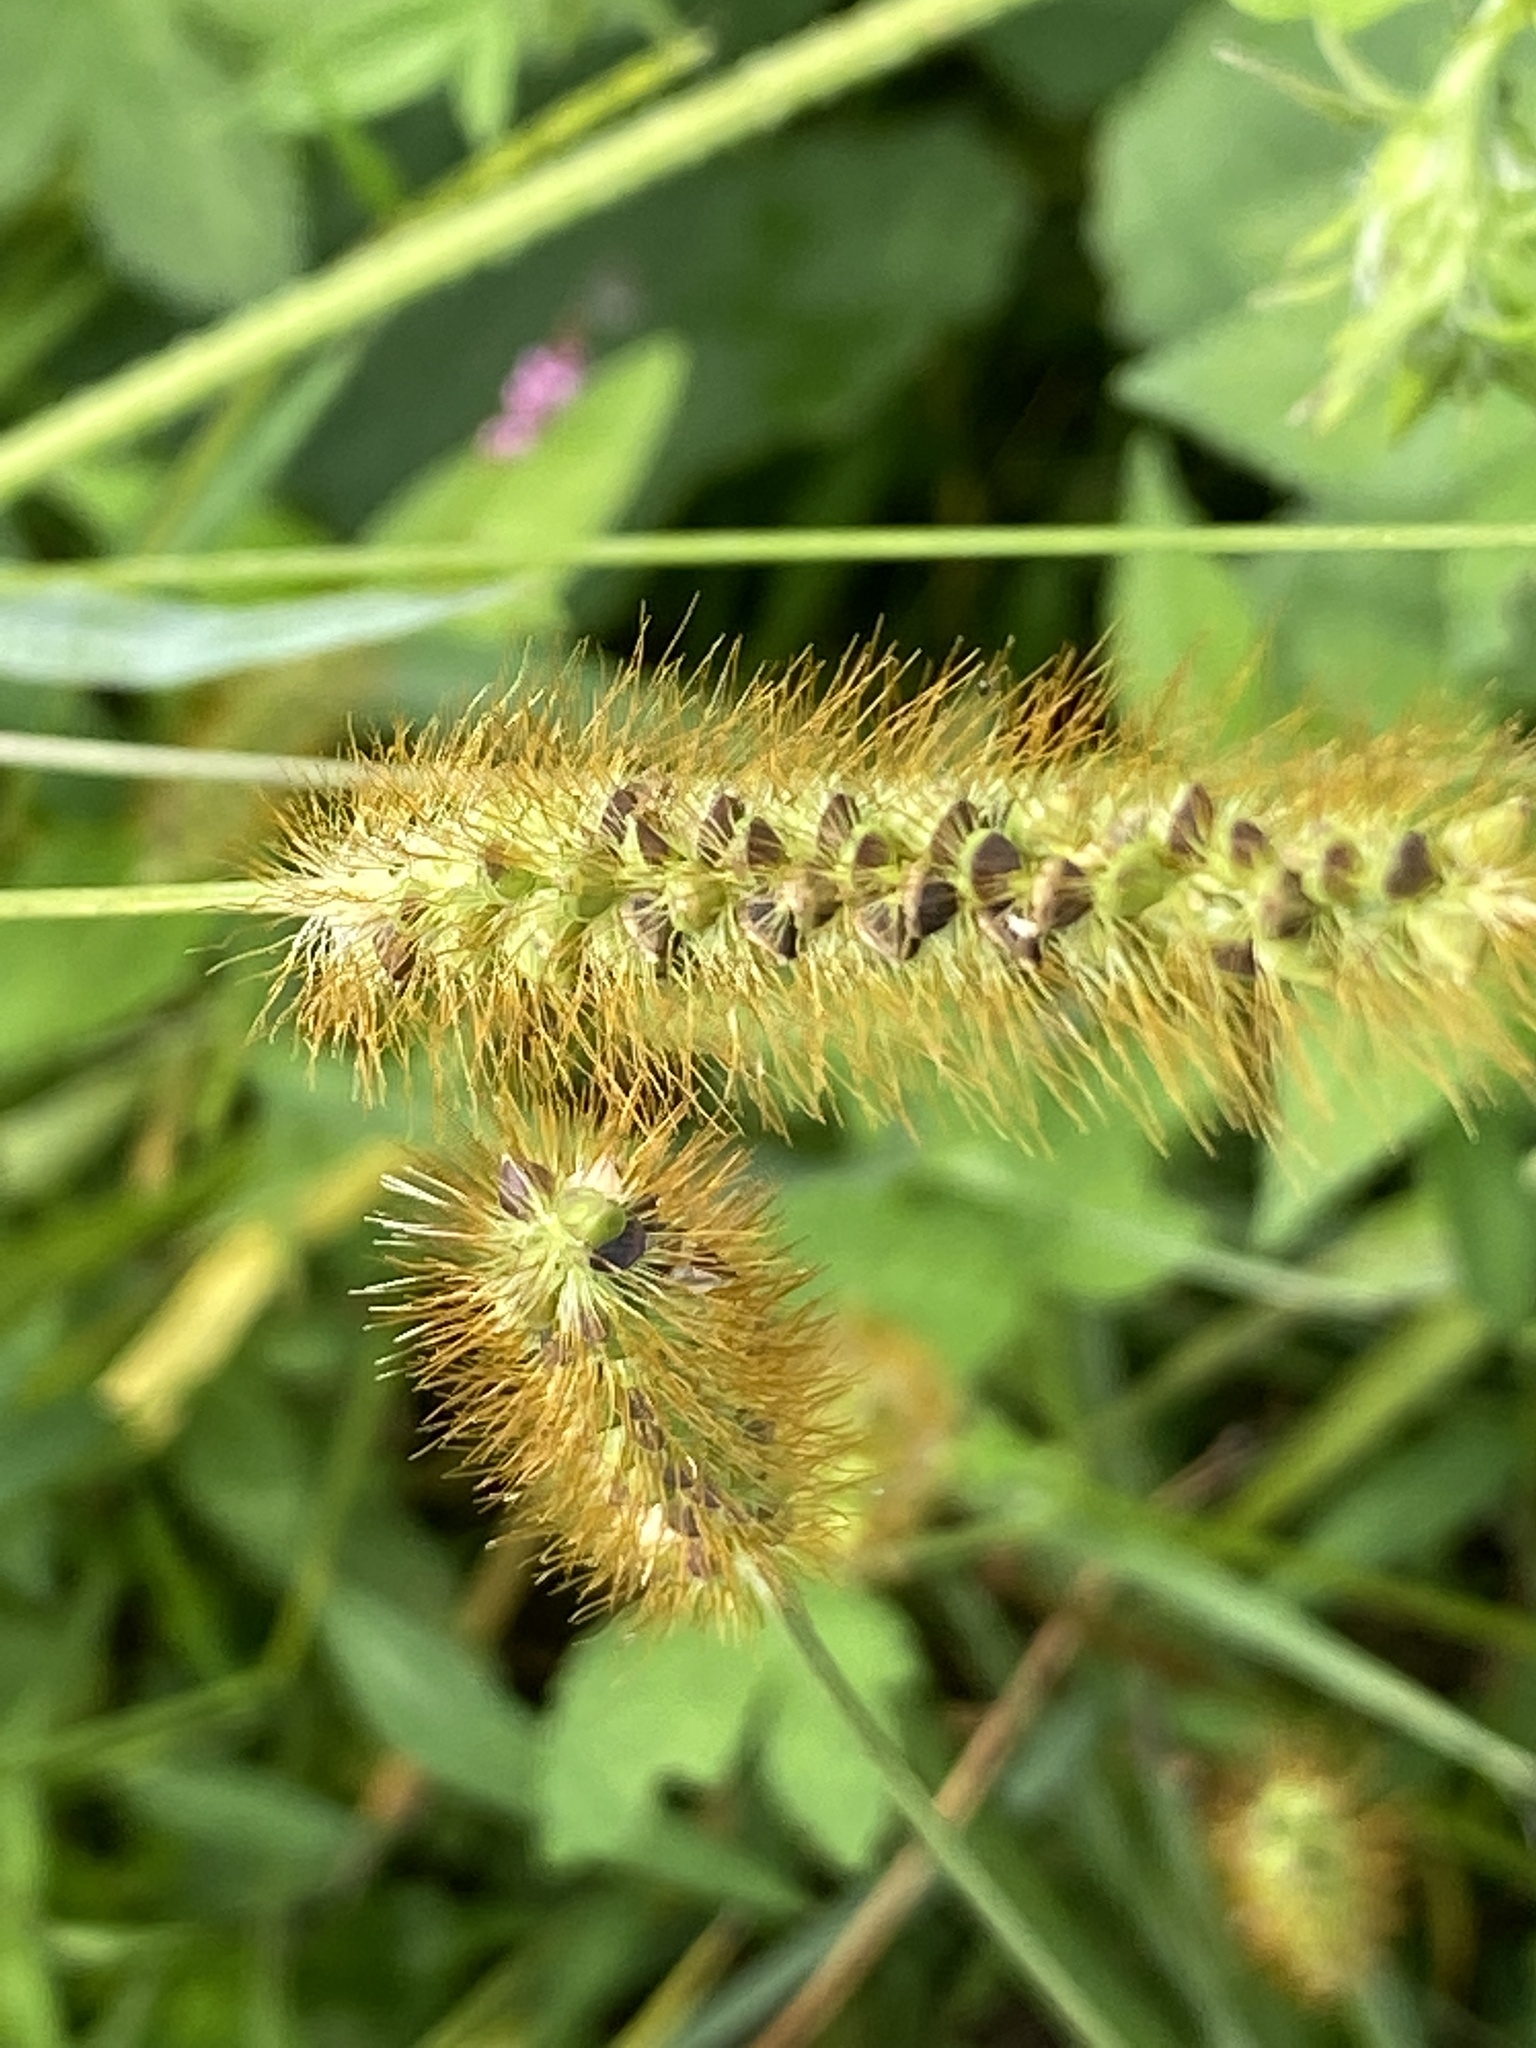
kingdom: Plantae
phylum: Tracheophyta
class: Liliopsida
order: Poales
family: Poaceae
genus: Setaria
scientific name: Setaria pumila
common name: Yellow bristle-grass
